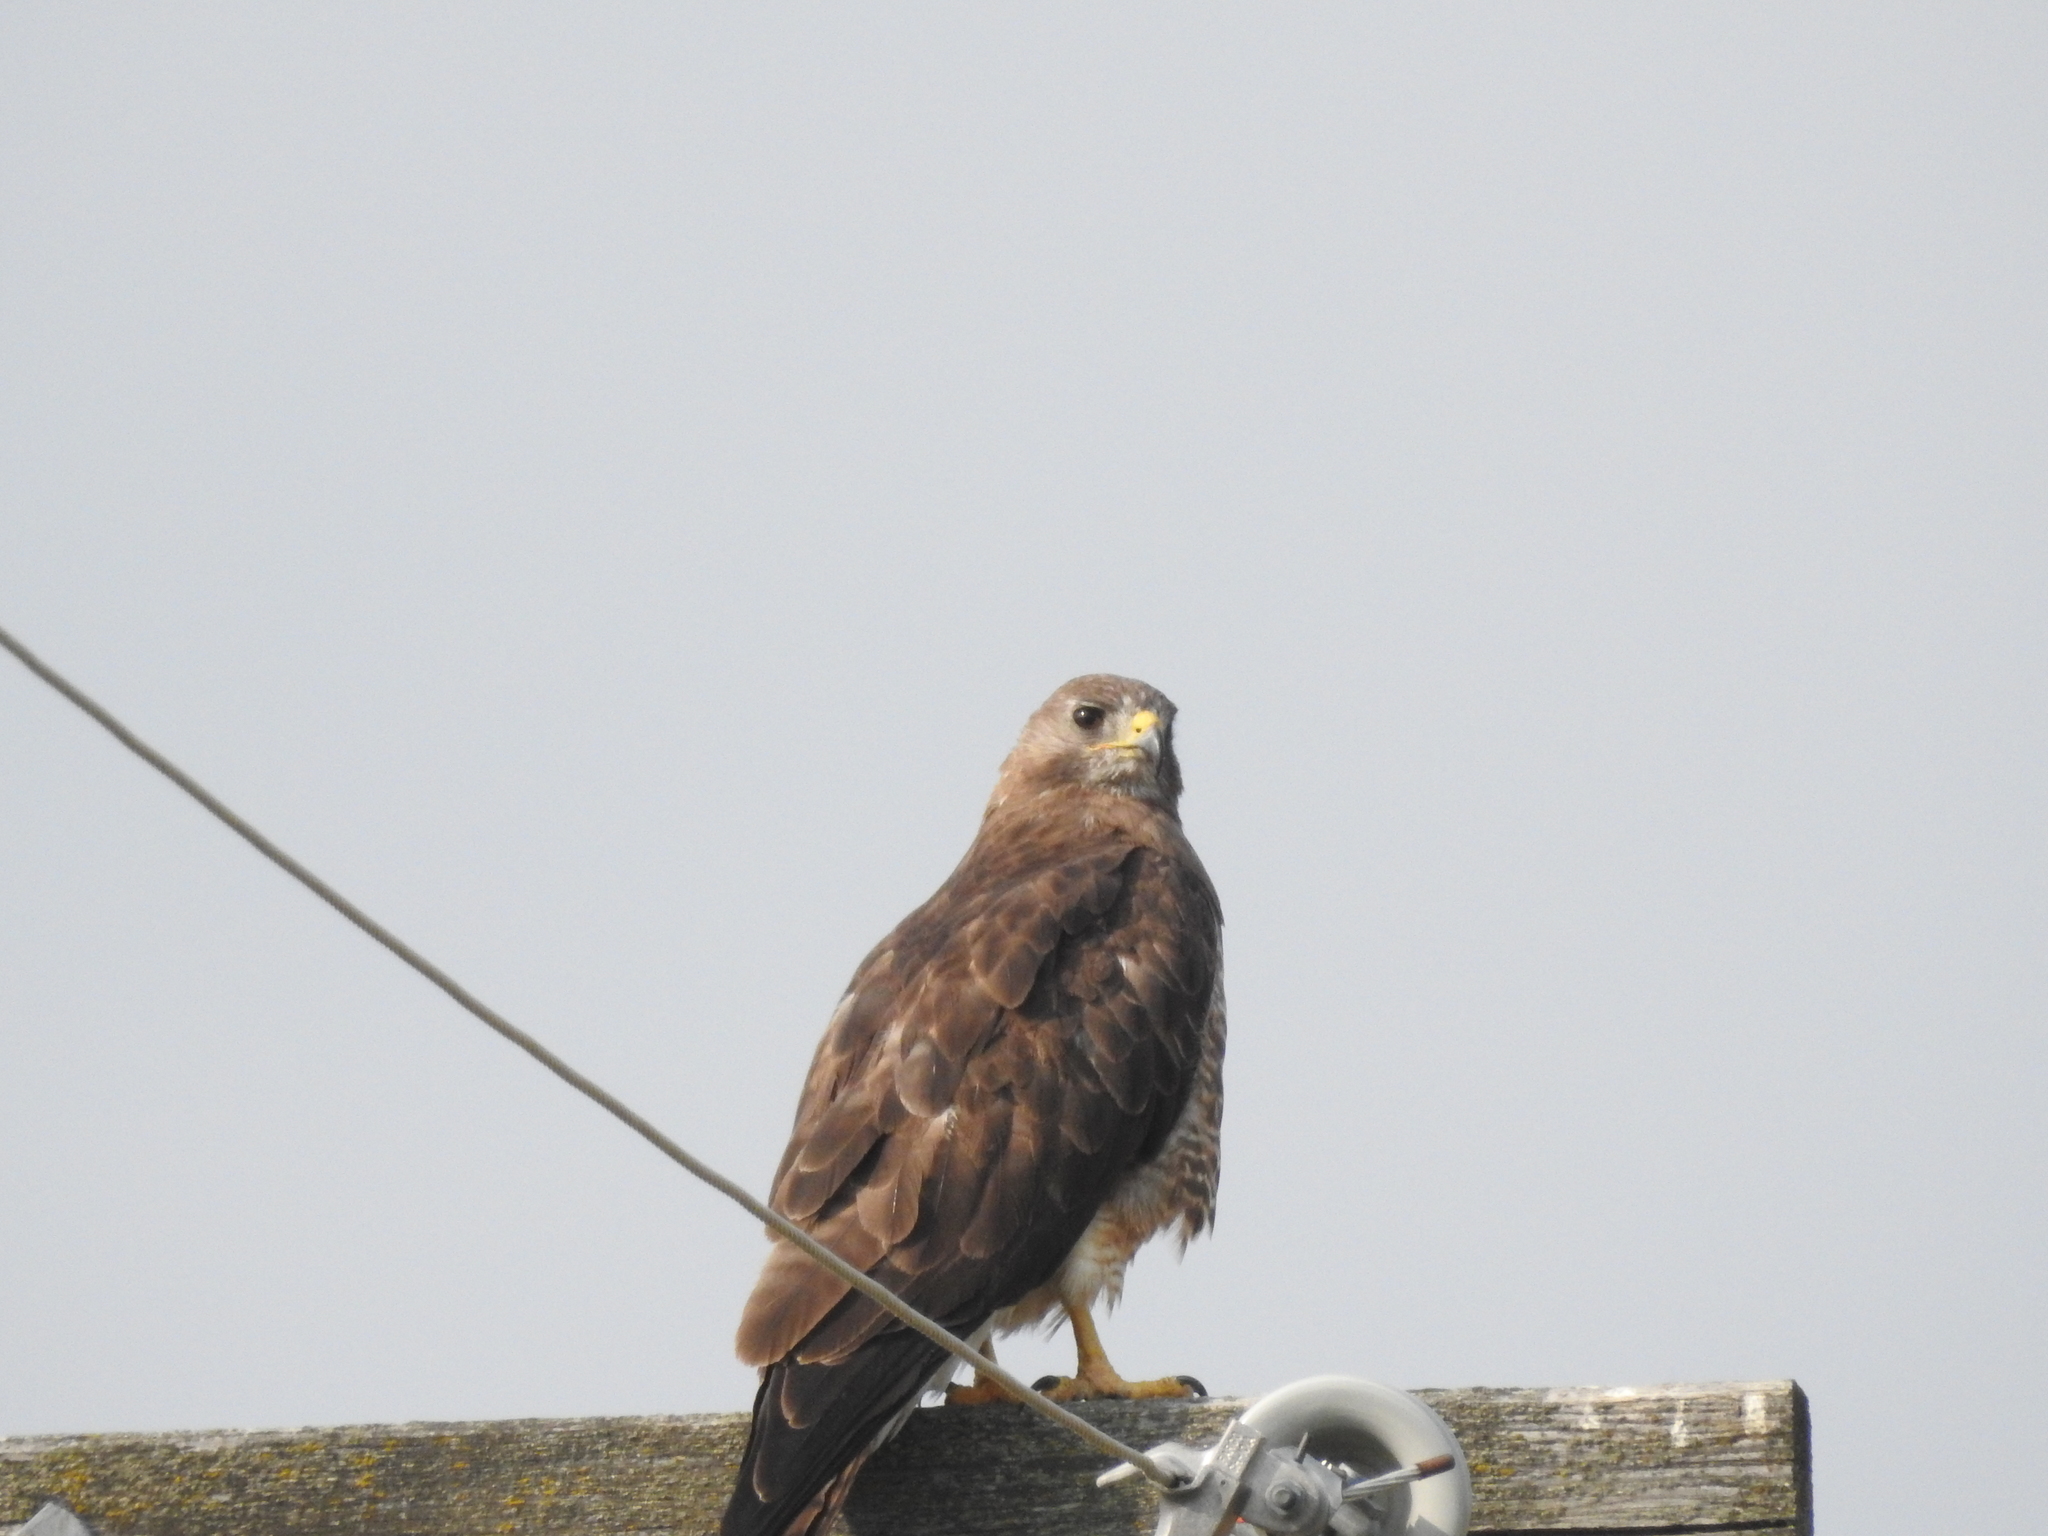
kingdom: Animalia
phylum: Chordata
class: Aves
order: Accipitriformes
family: Accipitridae
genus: Buteo
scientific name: Buteo swainsoni
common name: Swainson's hawk
